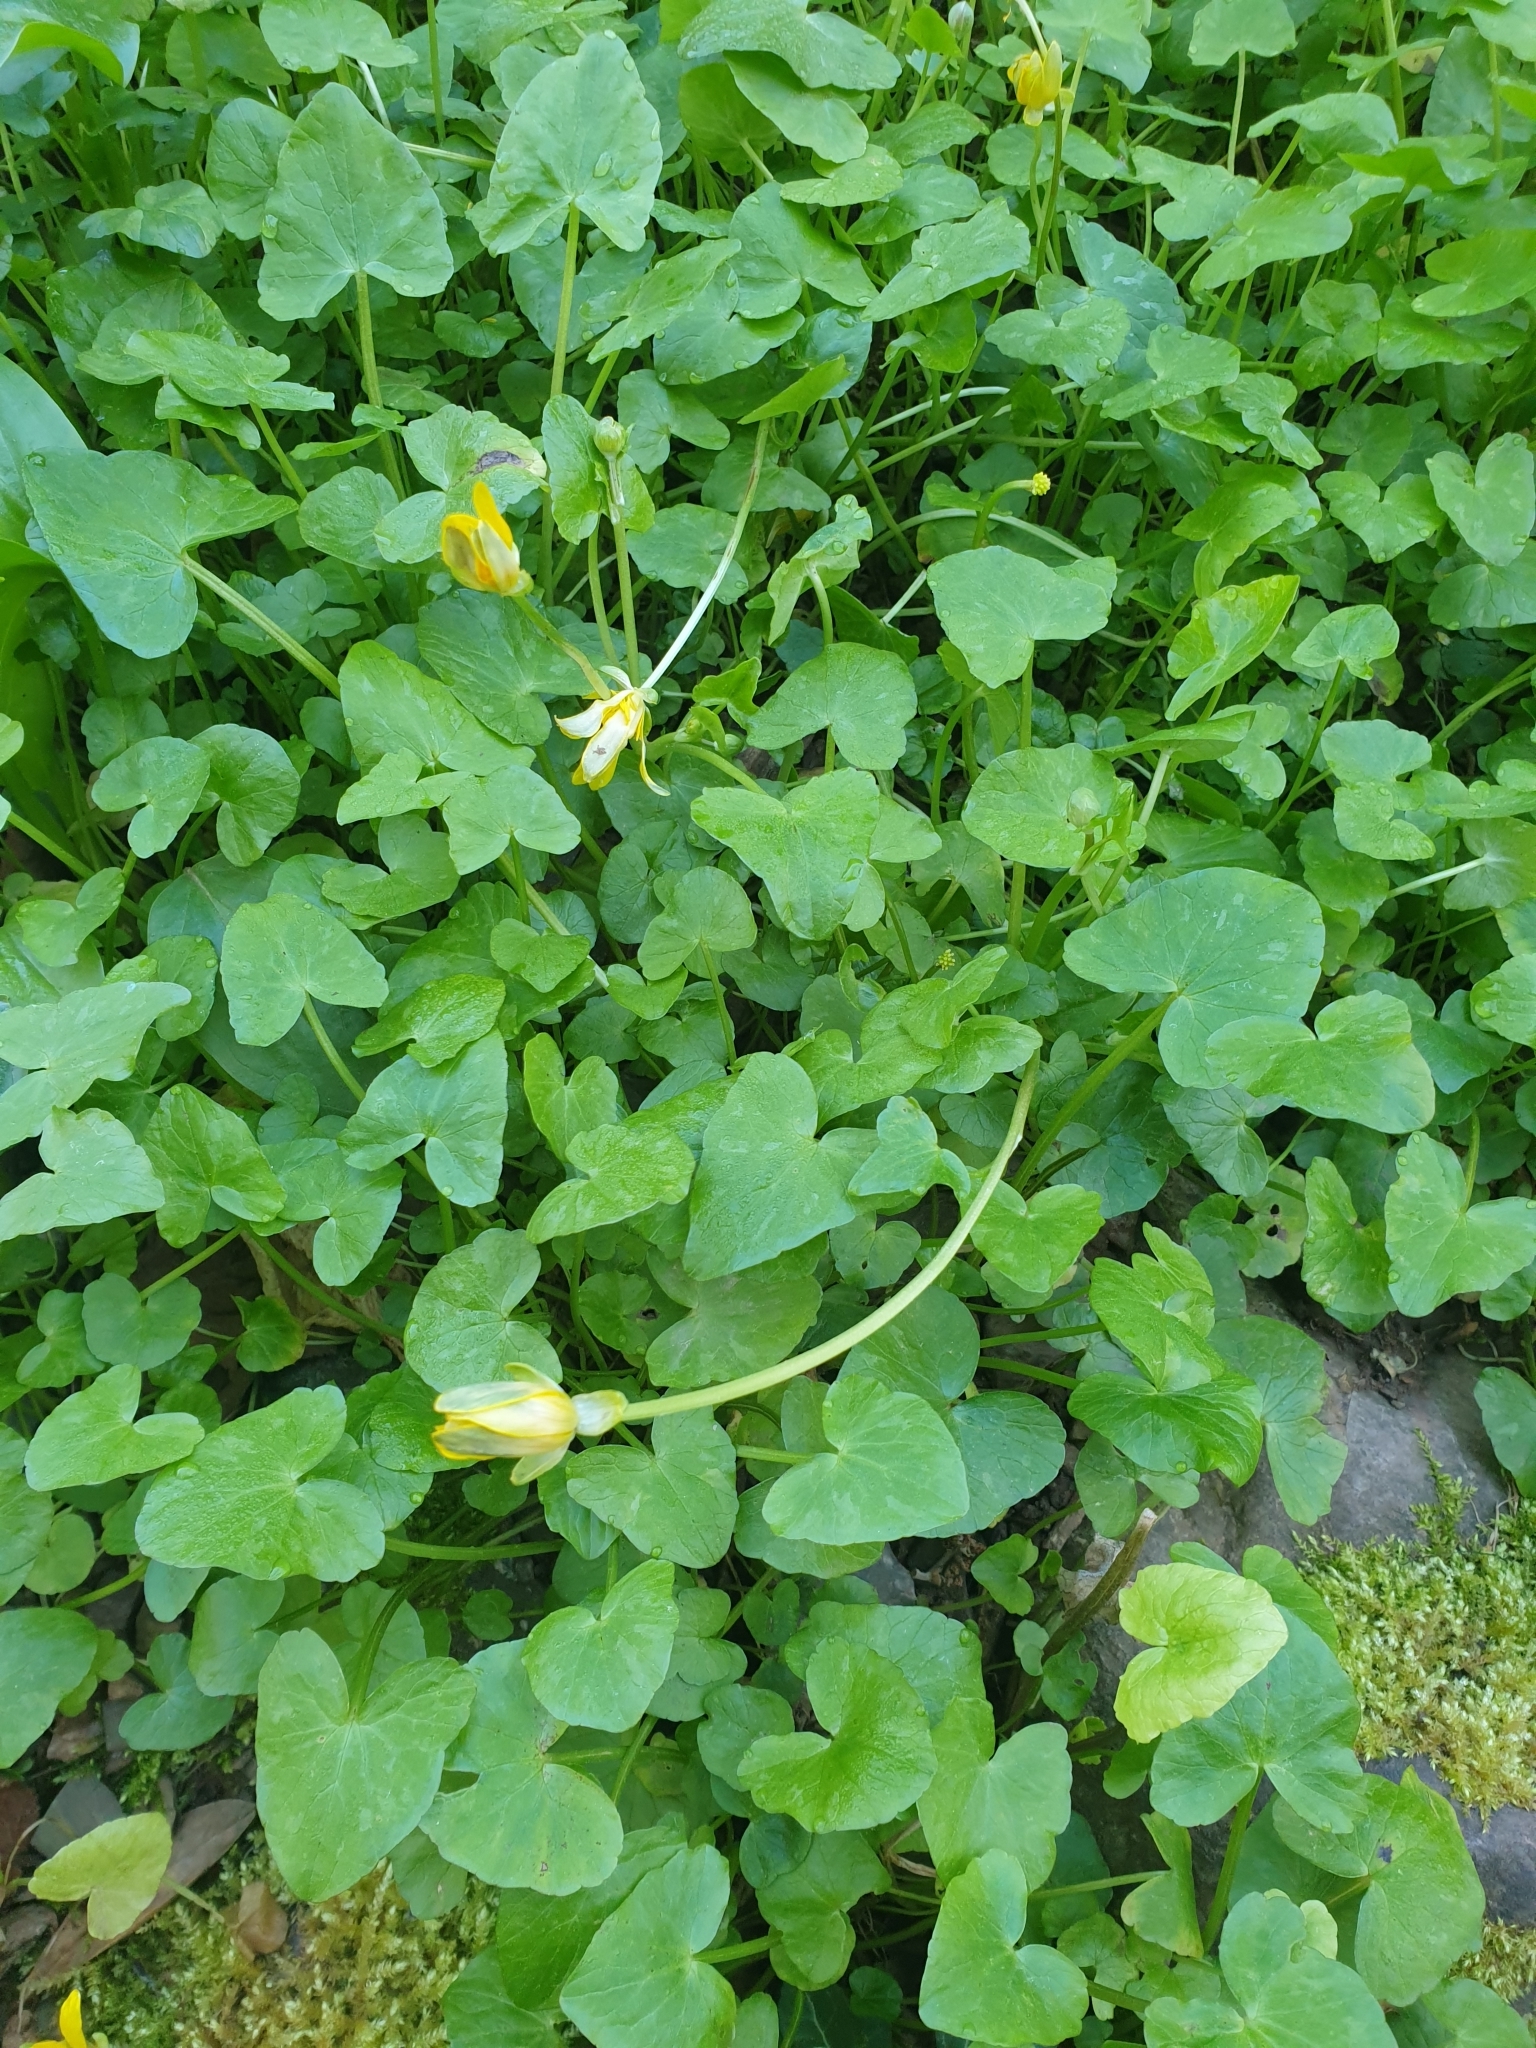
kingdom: Plantae
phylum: Tracheophyta
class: Magnoliopsida
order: Ranunculales
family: Ranunculaceae
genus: Ficaria
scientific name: Ficaria verna
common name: Lesser celandine
